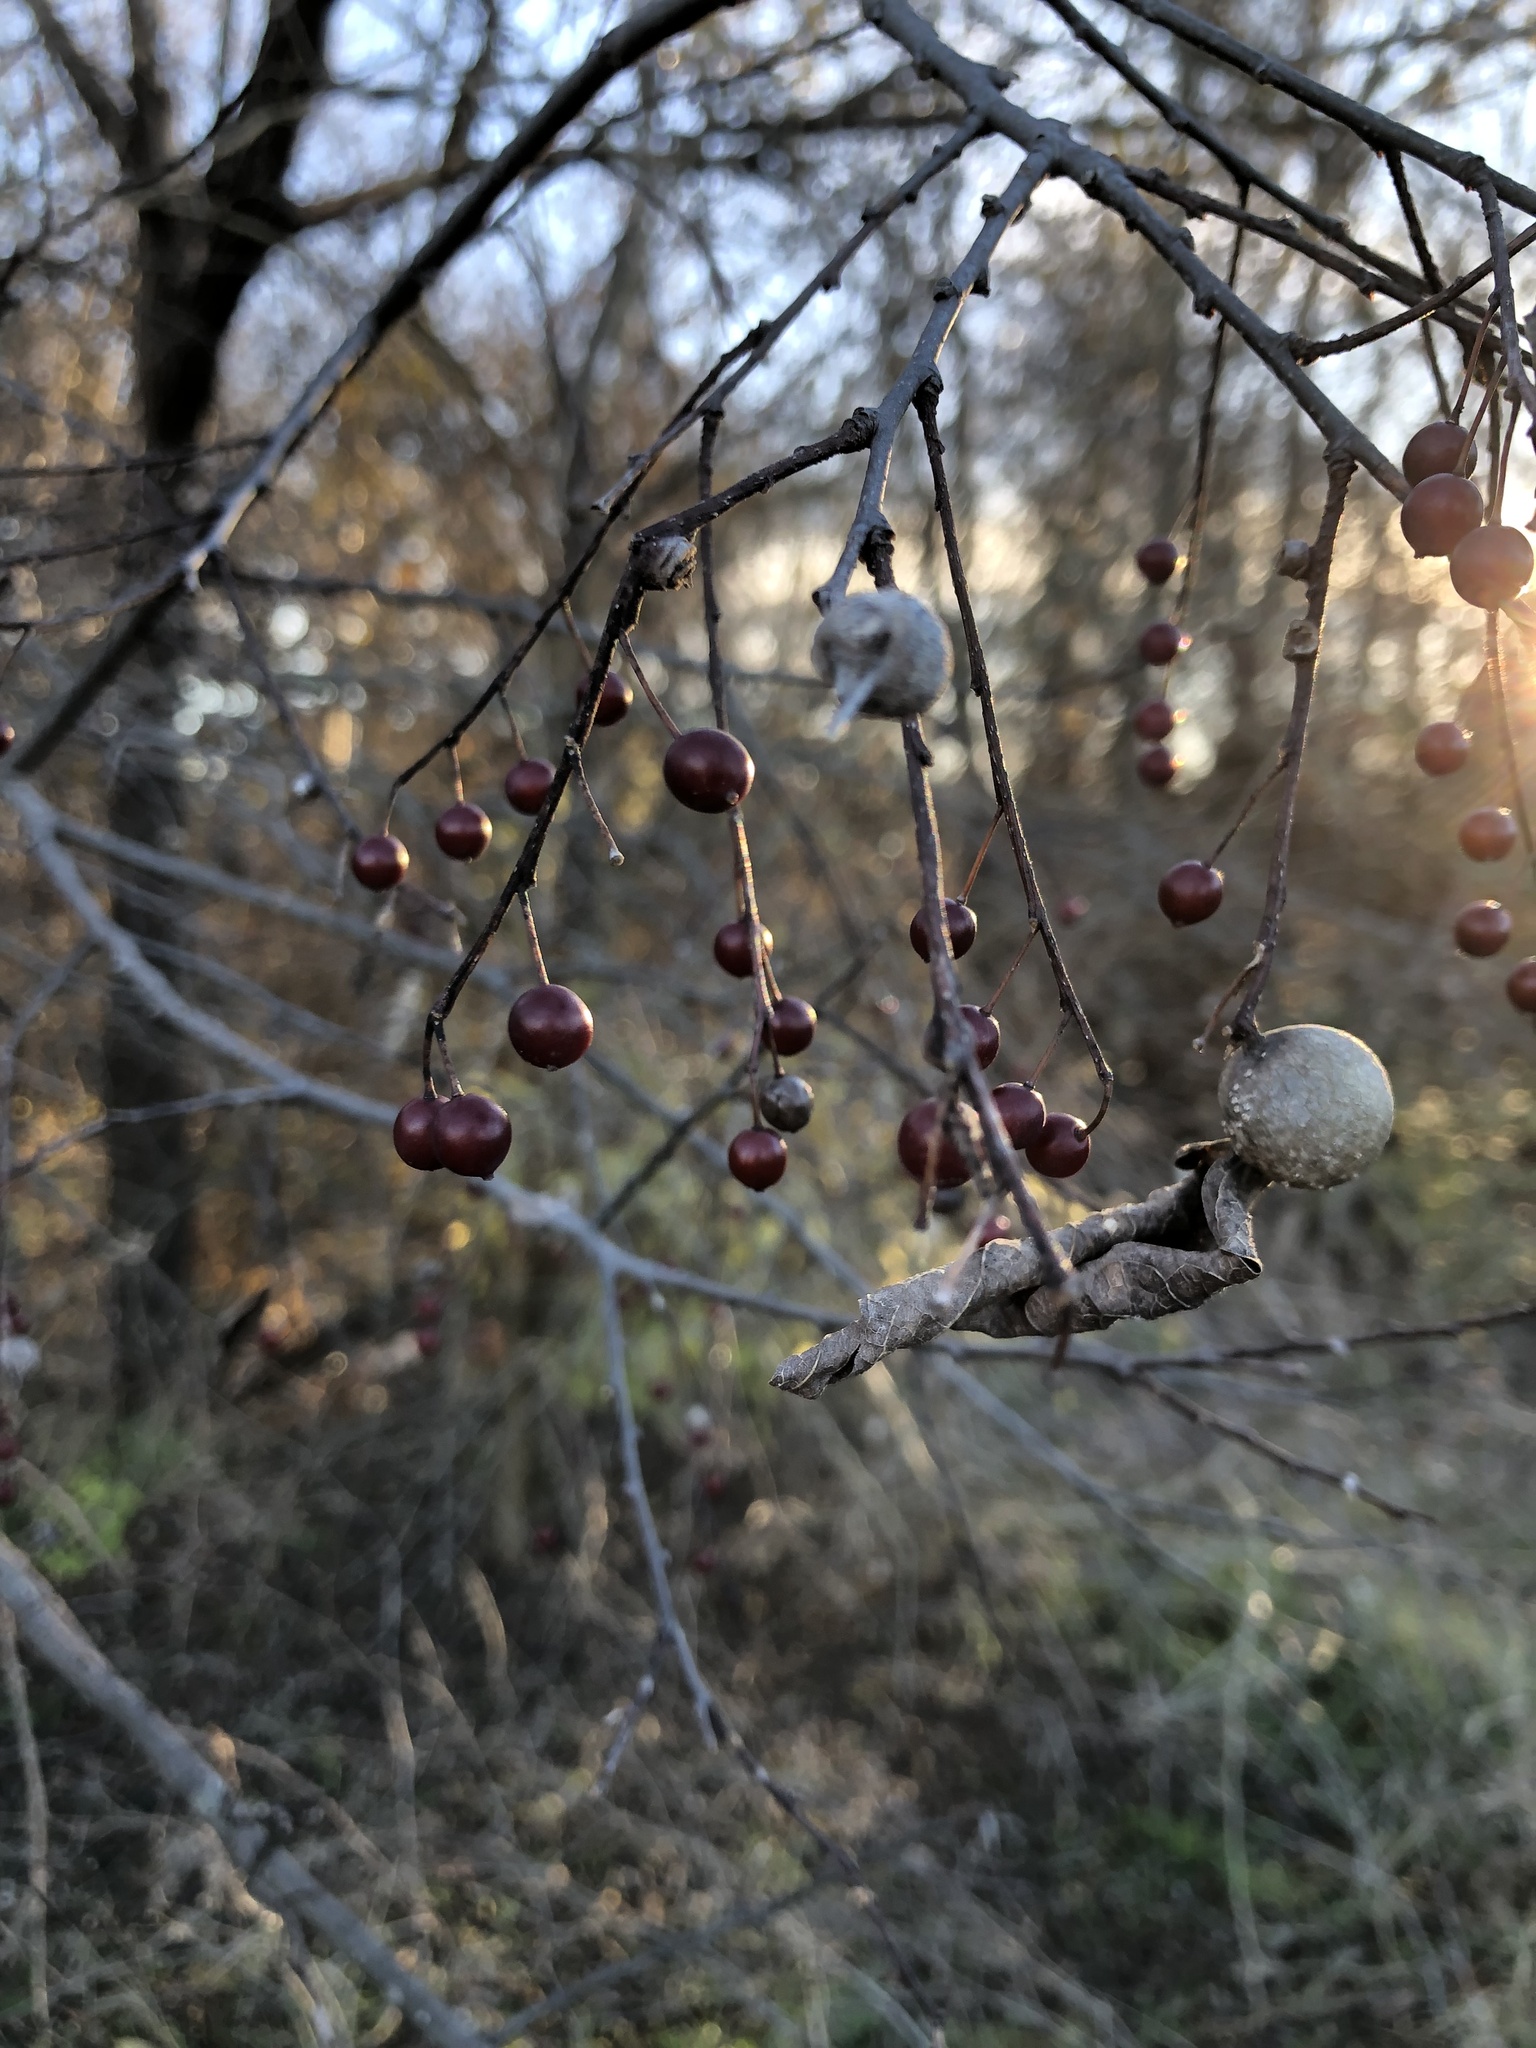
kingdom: Plantae
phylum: Tracheophyta
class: Magnoliopsida
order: Rosales
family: Cannabaceae
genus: Celtis
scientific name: Celtis laevigata
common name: Sugarberry
